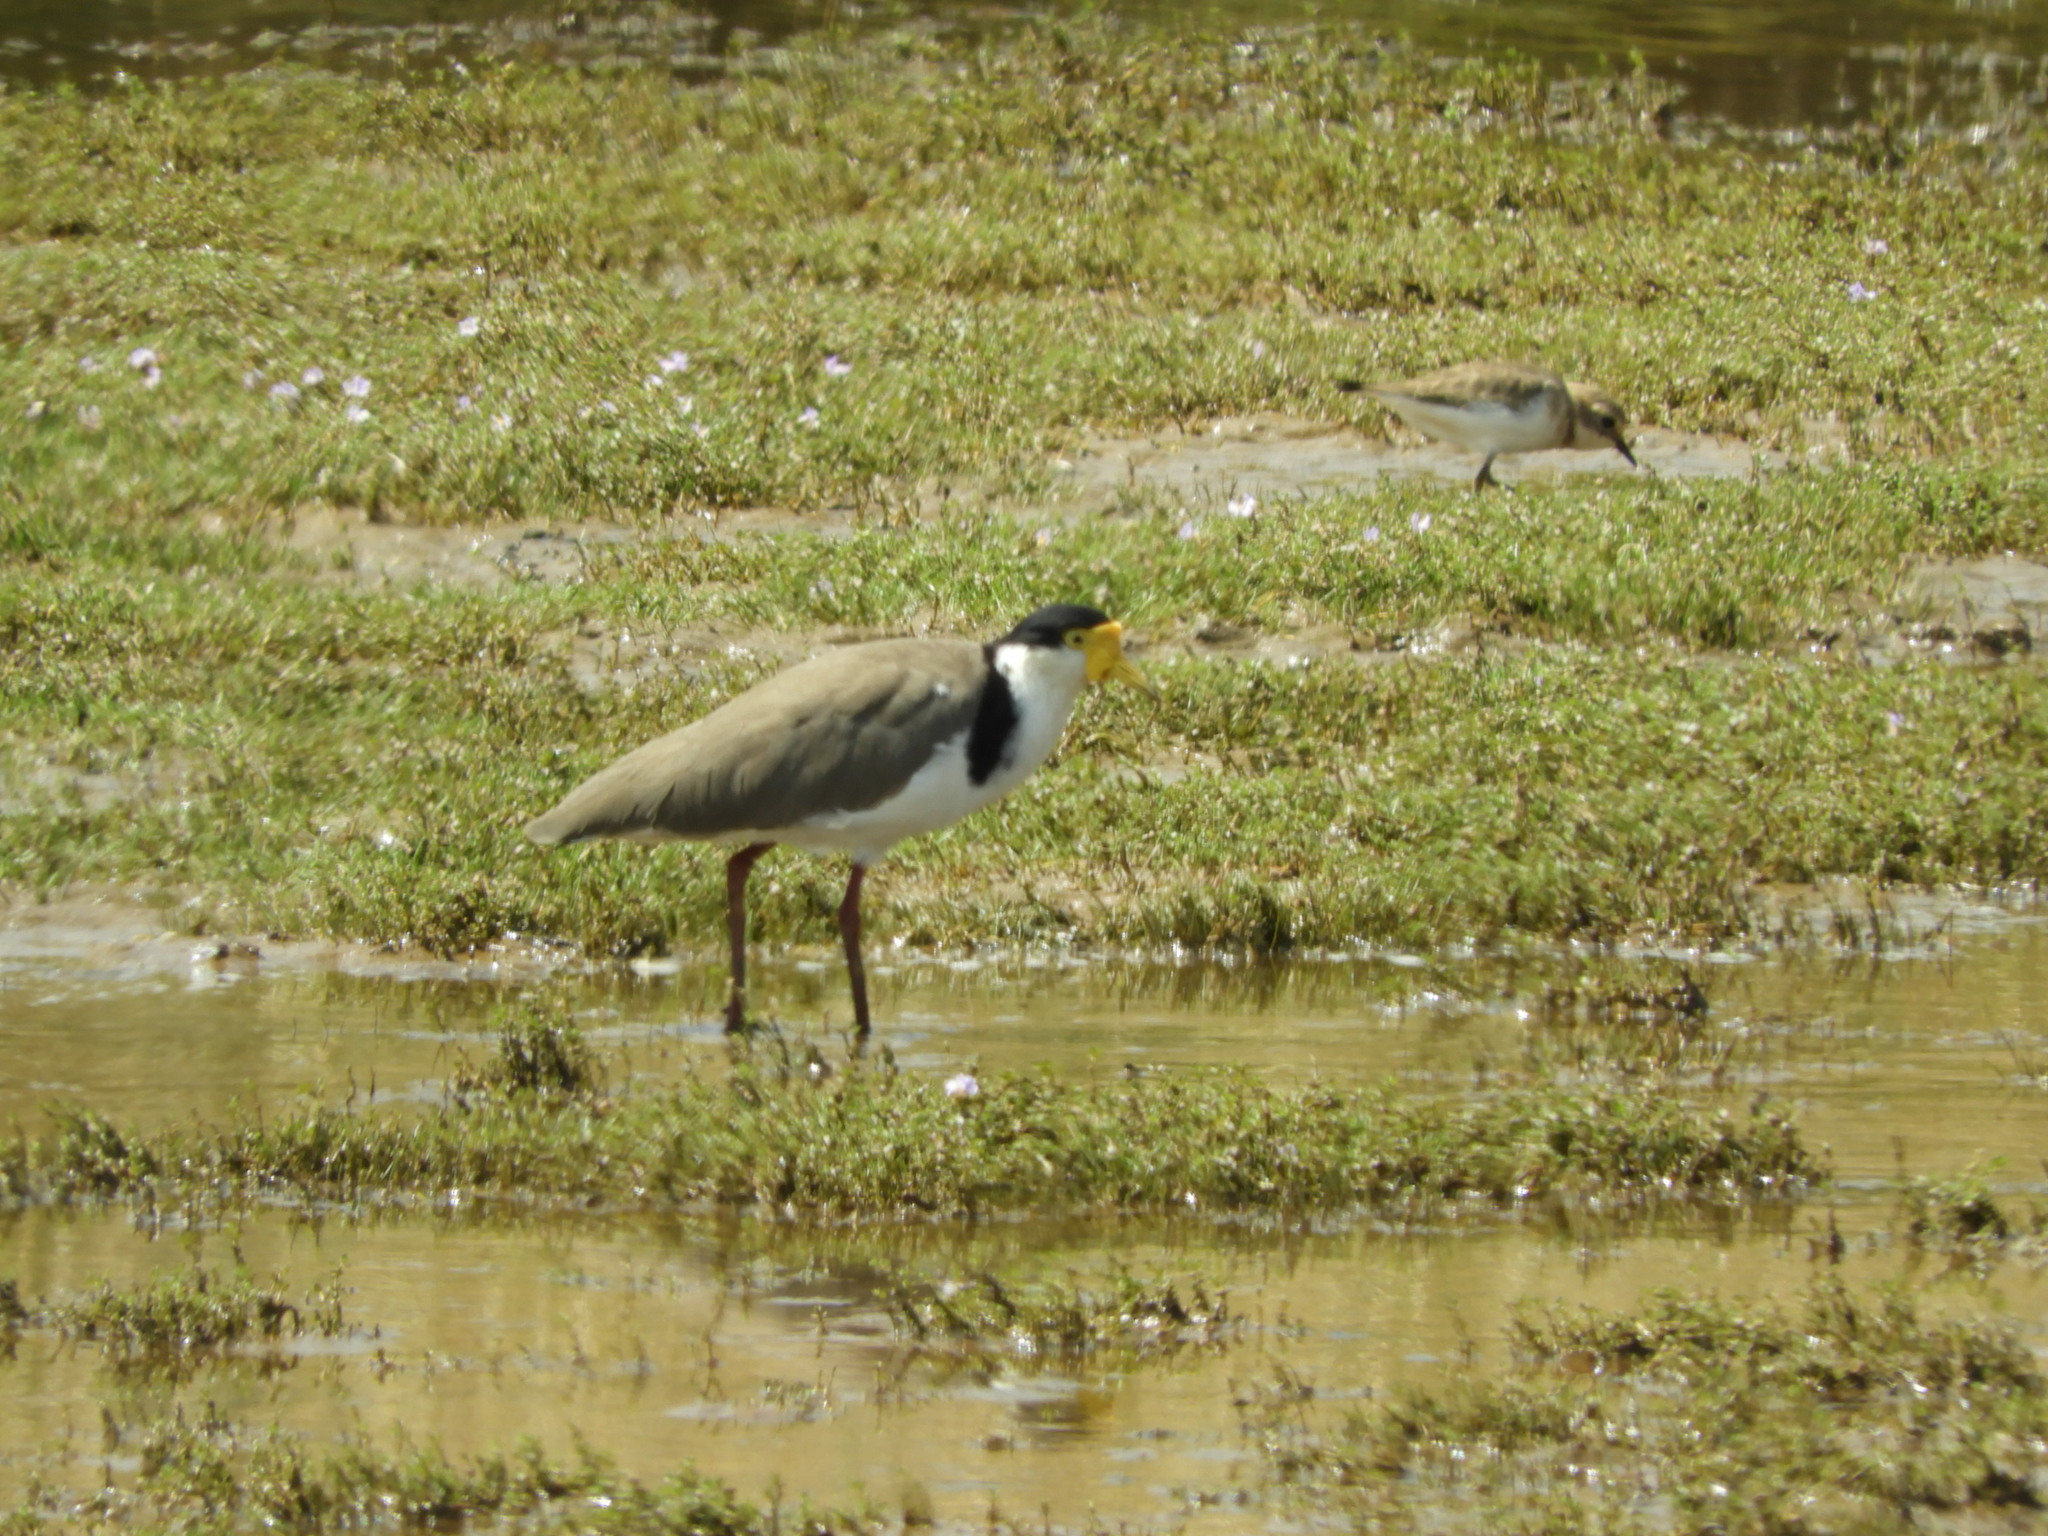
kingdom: Animalia
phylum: Chordata
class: Aves
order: Charadriiformes
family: Charadriidae
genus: Vanellus
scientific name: Vanellus miles
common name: Masked lapwing
